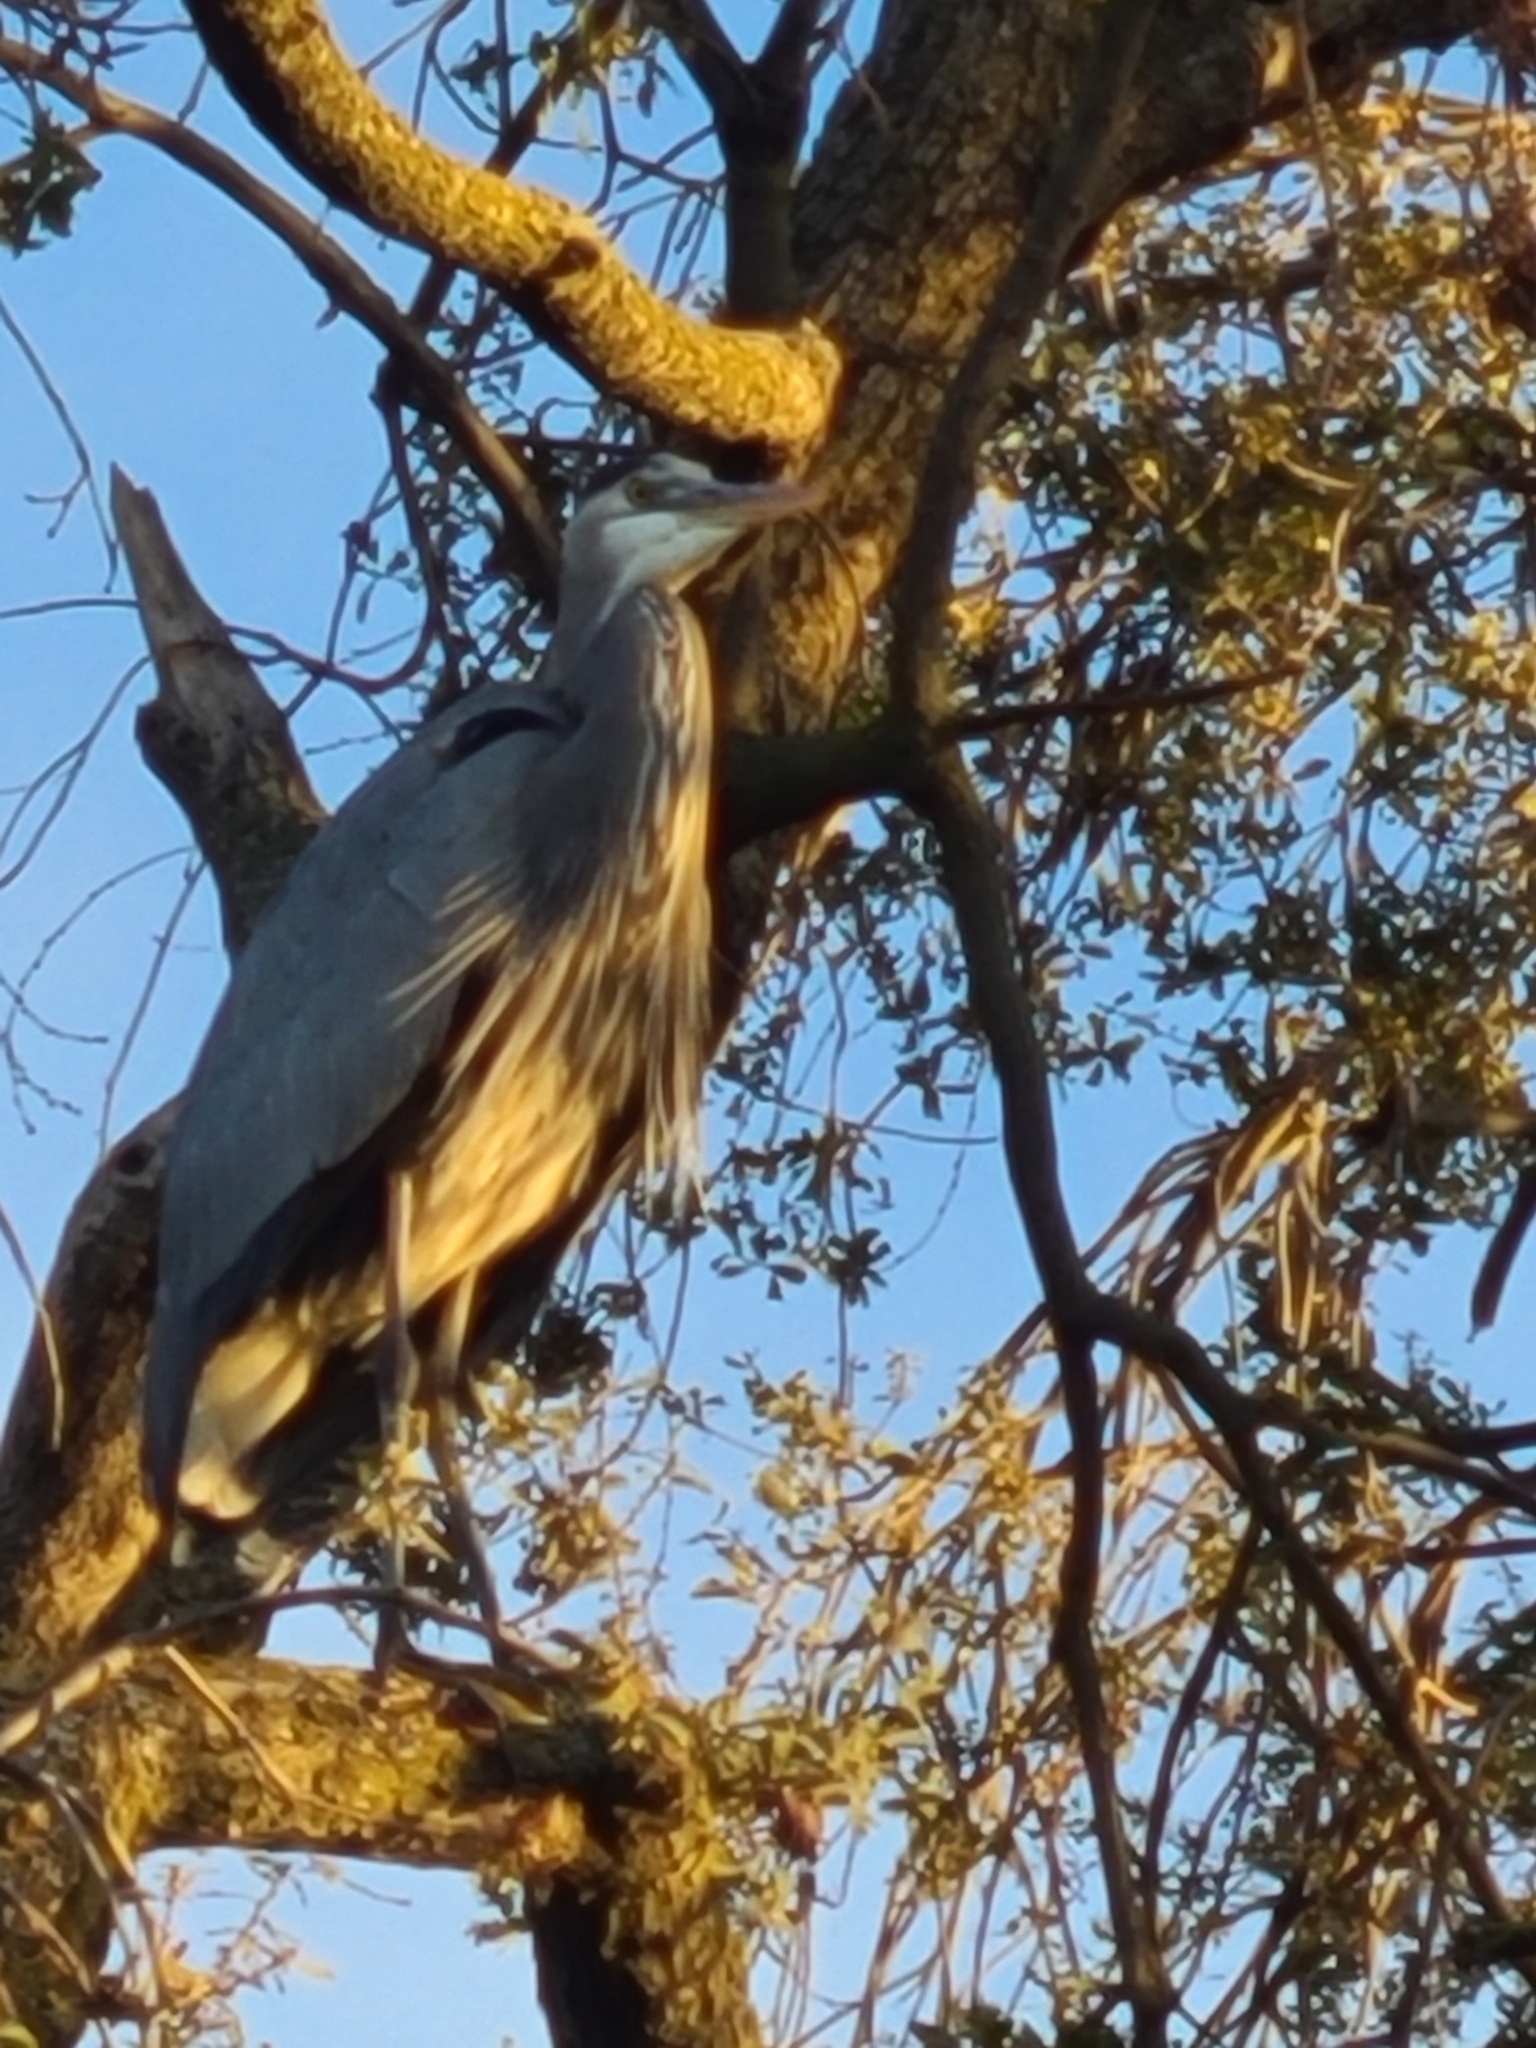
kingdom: Animalia
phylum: Chordata
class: Aves
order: Pelecaniformes
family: Ardeidae
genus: Ardea
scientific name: Ardea herodias
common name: Great blue heron
